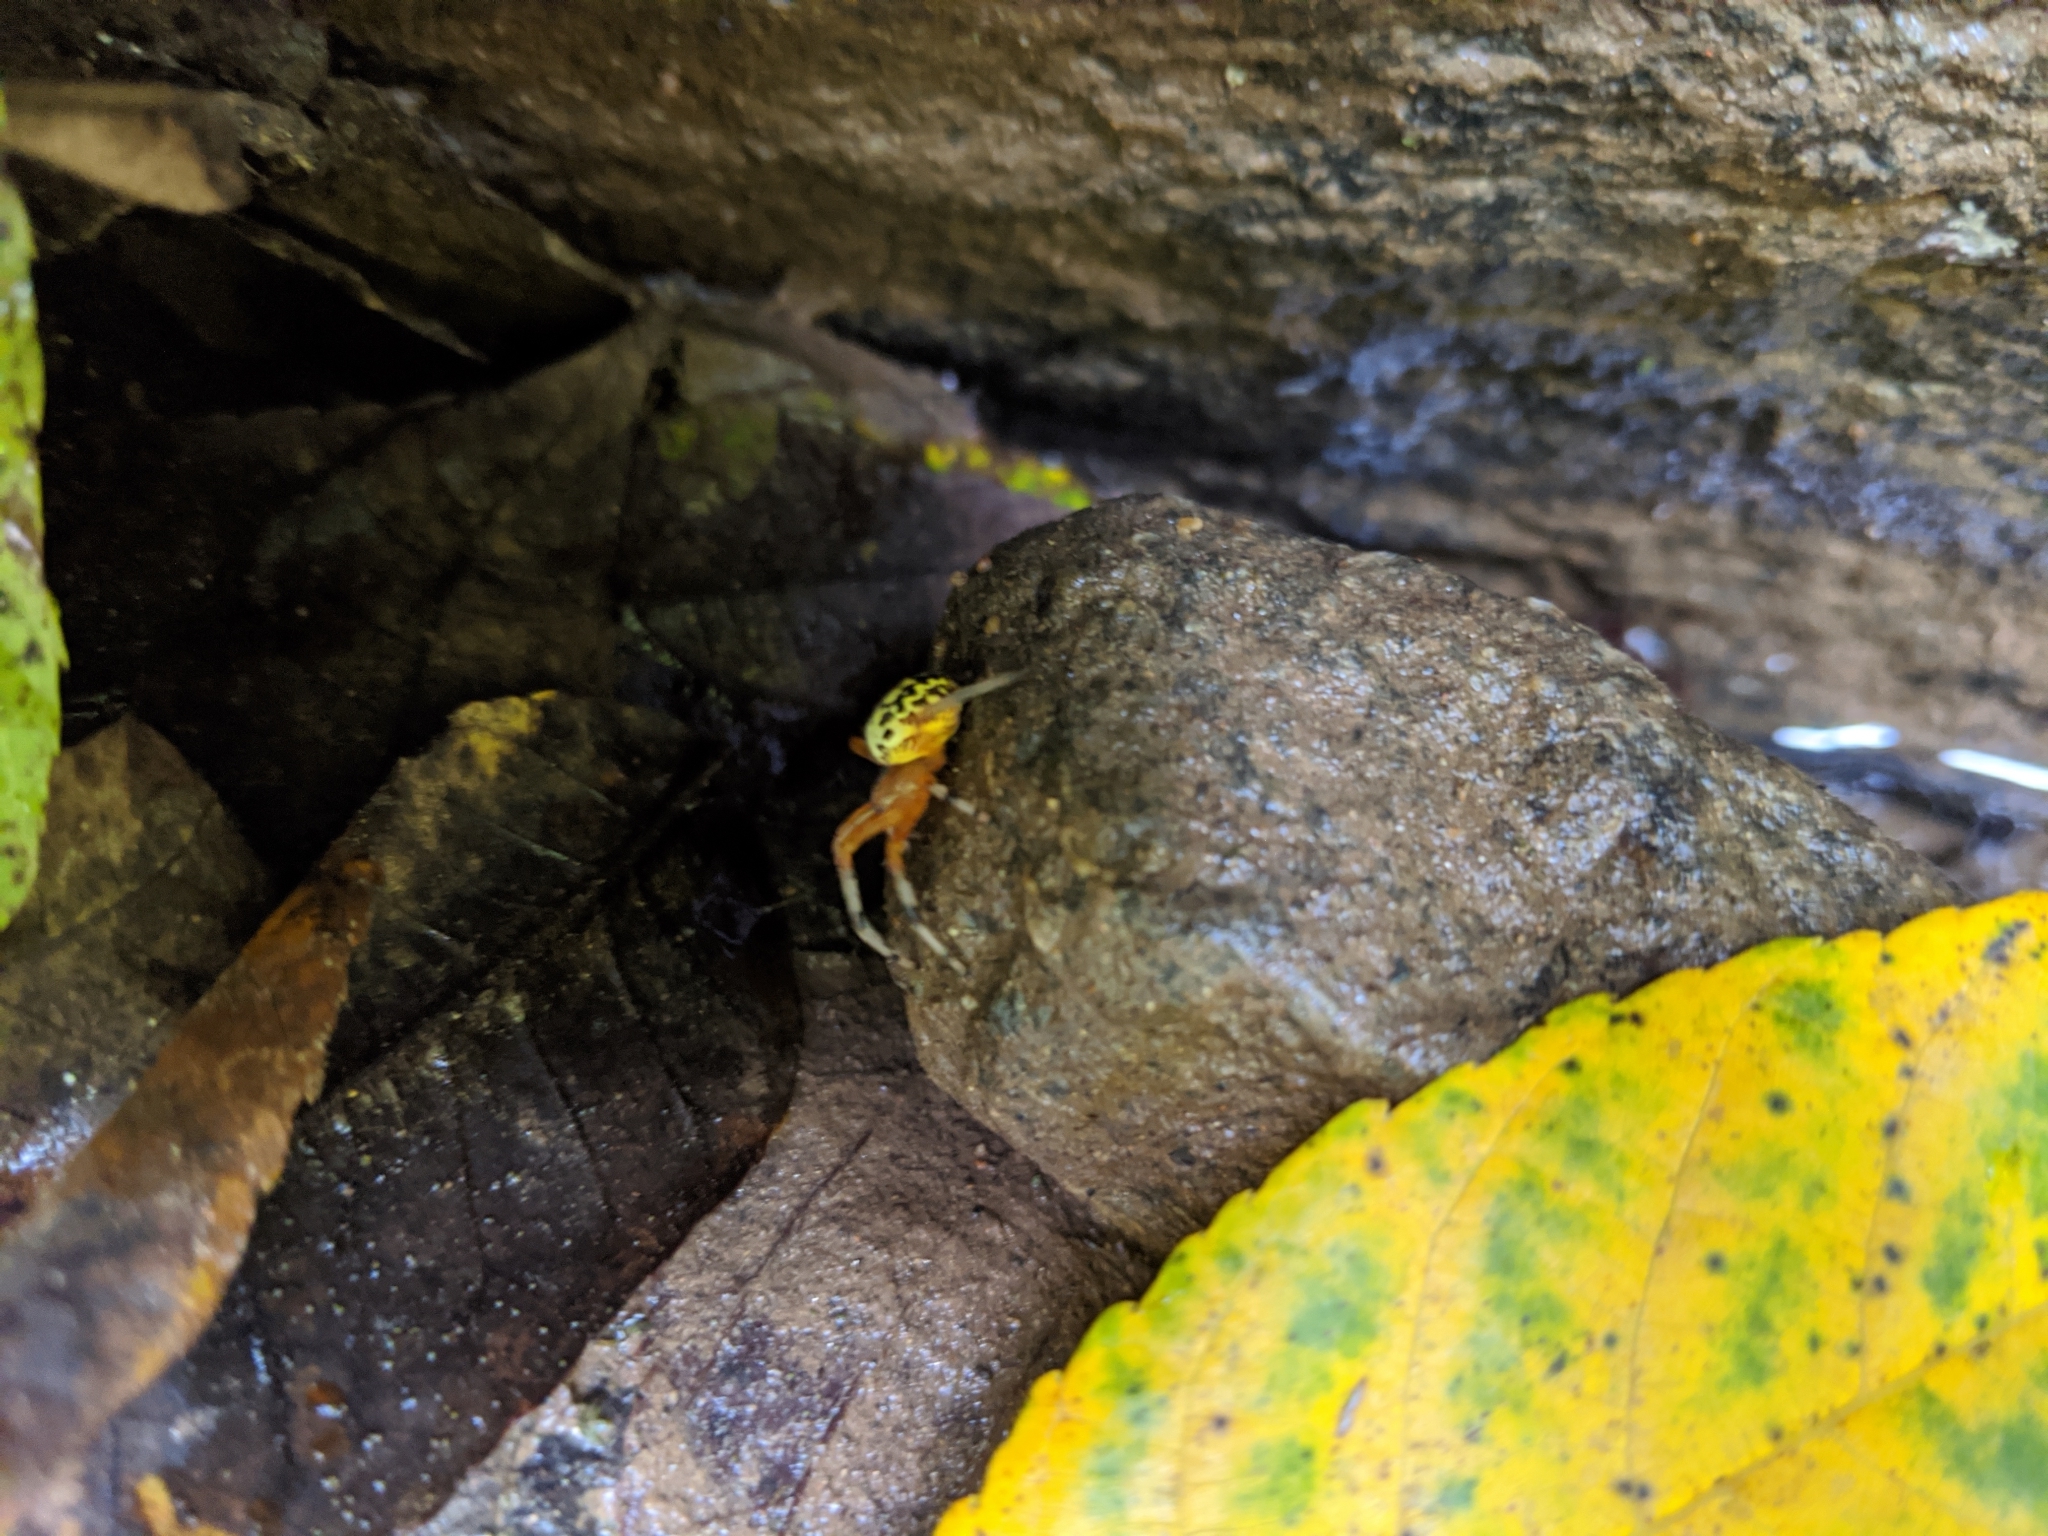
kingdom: Animalia
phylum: Arthropoda
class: Arachnida
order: Araneae
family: Araneidae
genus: Araneus
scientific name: Araneus marmoreus
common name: Marbled orbweaver
